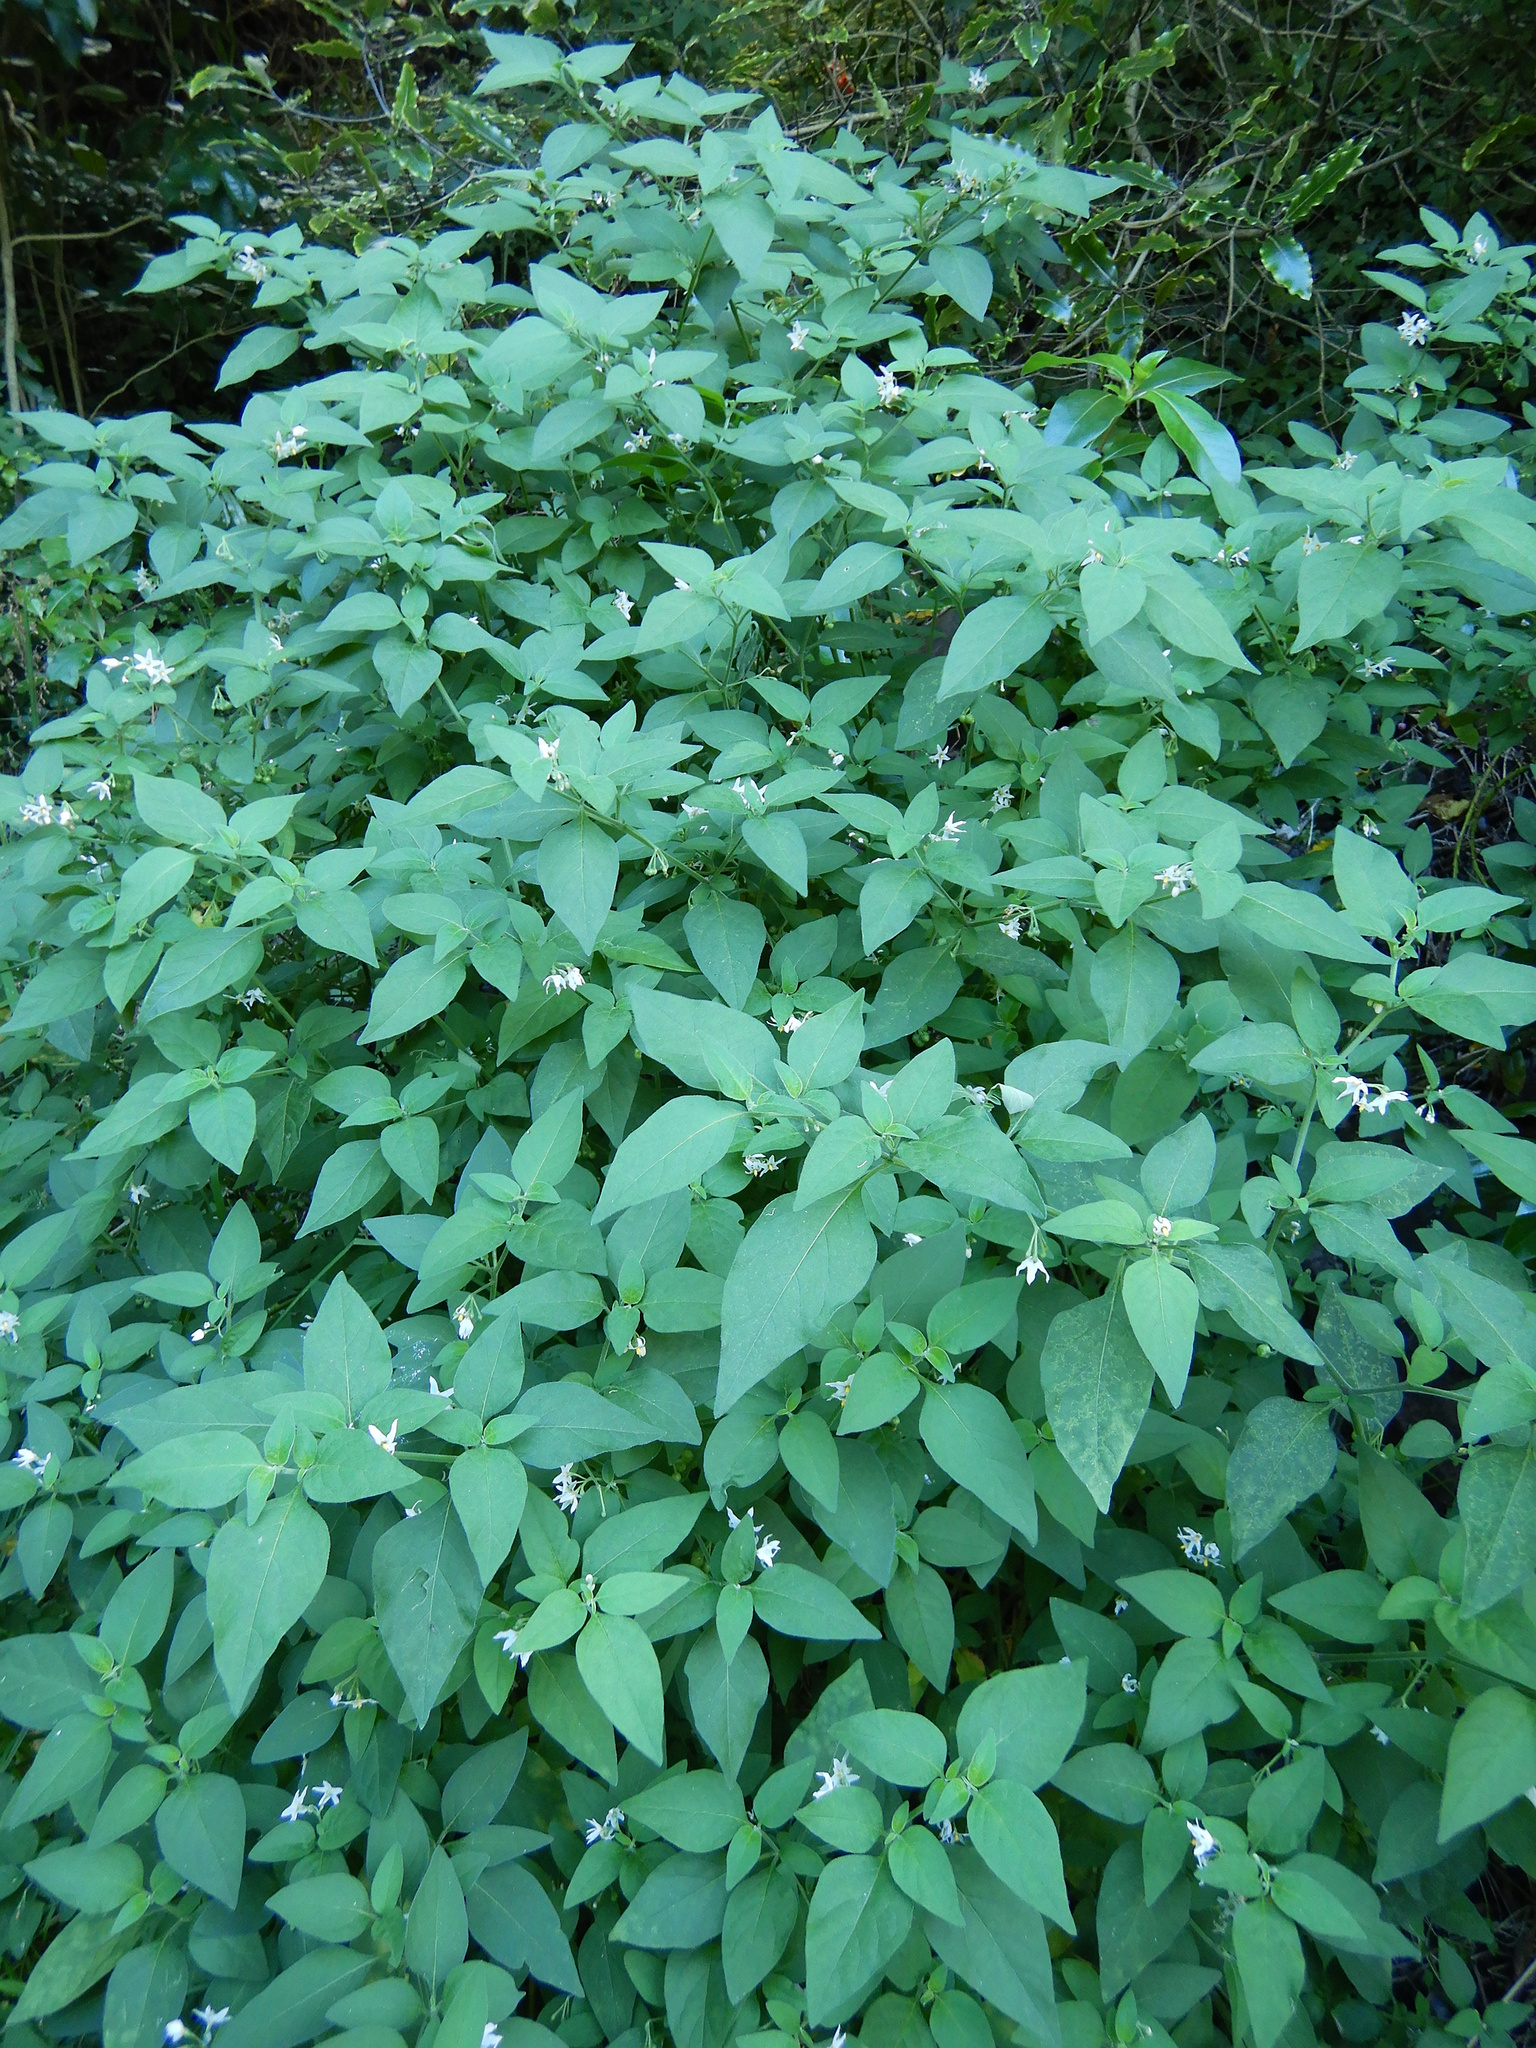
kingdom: Plantae
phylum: Tracheophyta
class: Magnoliopsida
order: Solanales
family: Solanaceae
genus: Solanum
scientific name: Solanum chenopodioides
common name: Tall nightshade
